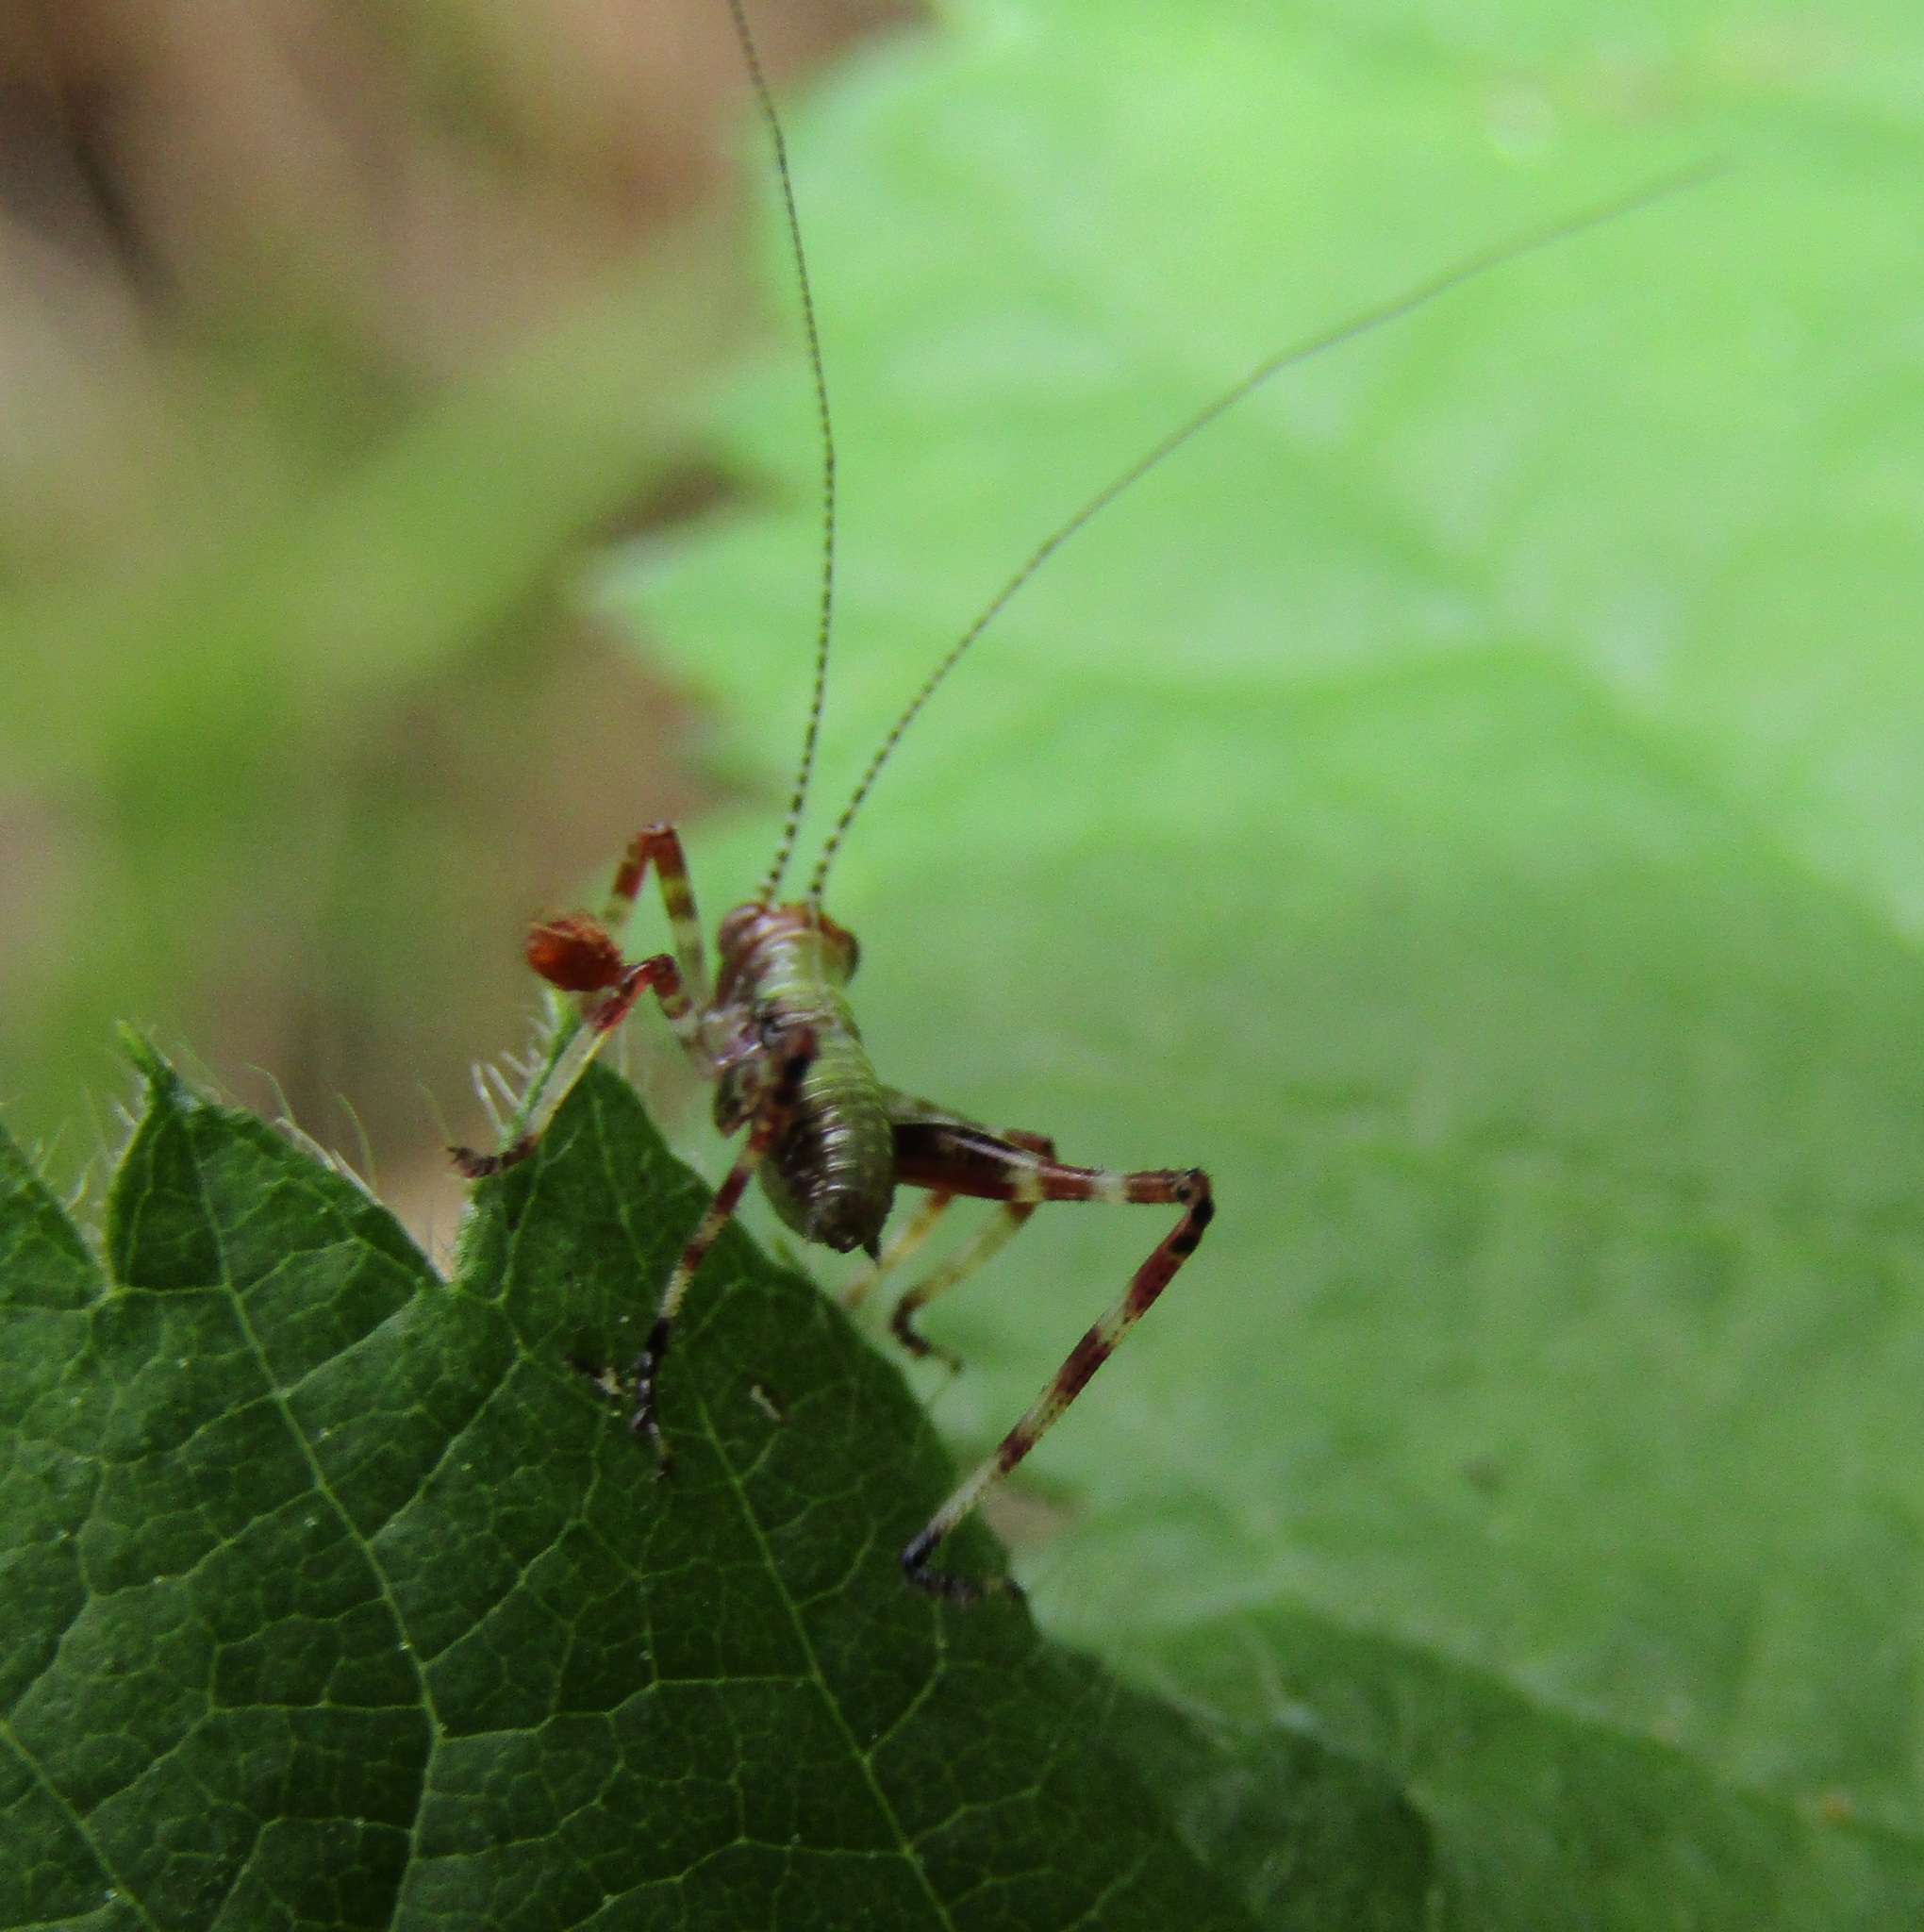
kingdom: Animalia
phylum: Arthropoda
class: Insecta
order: Orthoptera
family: Tettigoniidae
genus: Caedicia
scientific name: Caedicia simplex
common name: Common garden katydid
